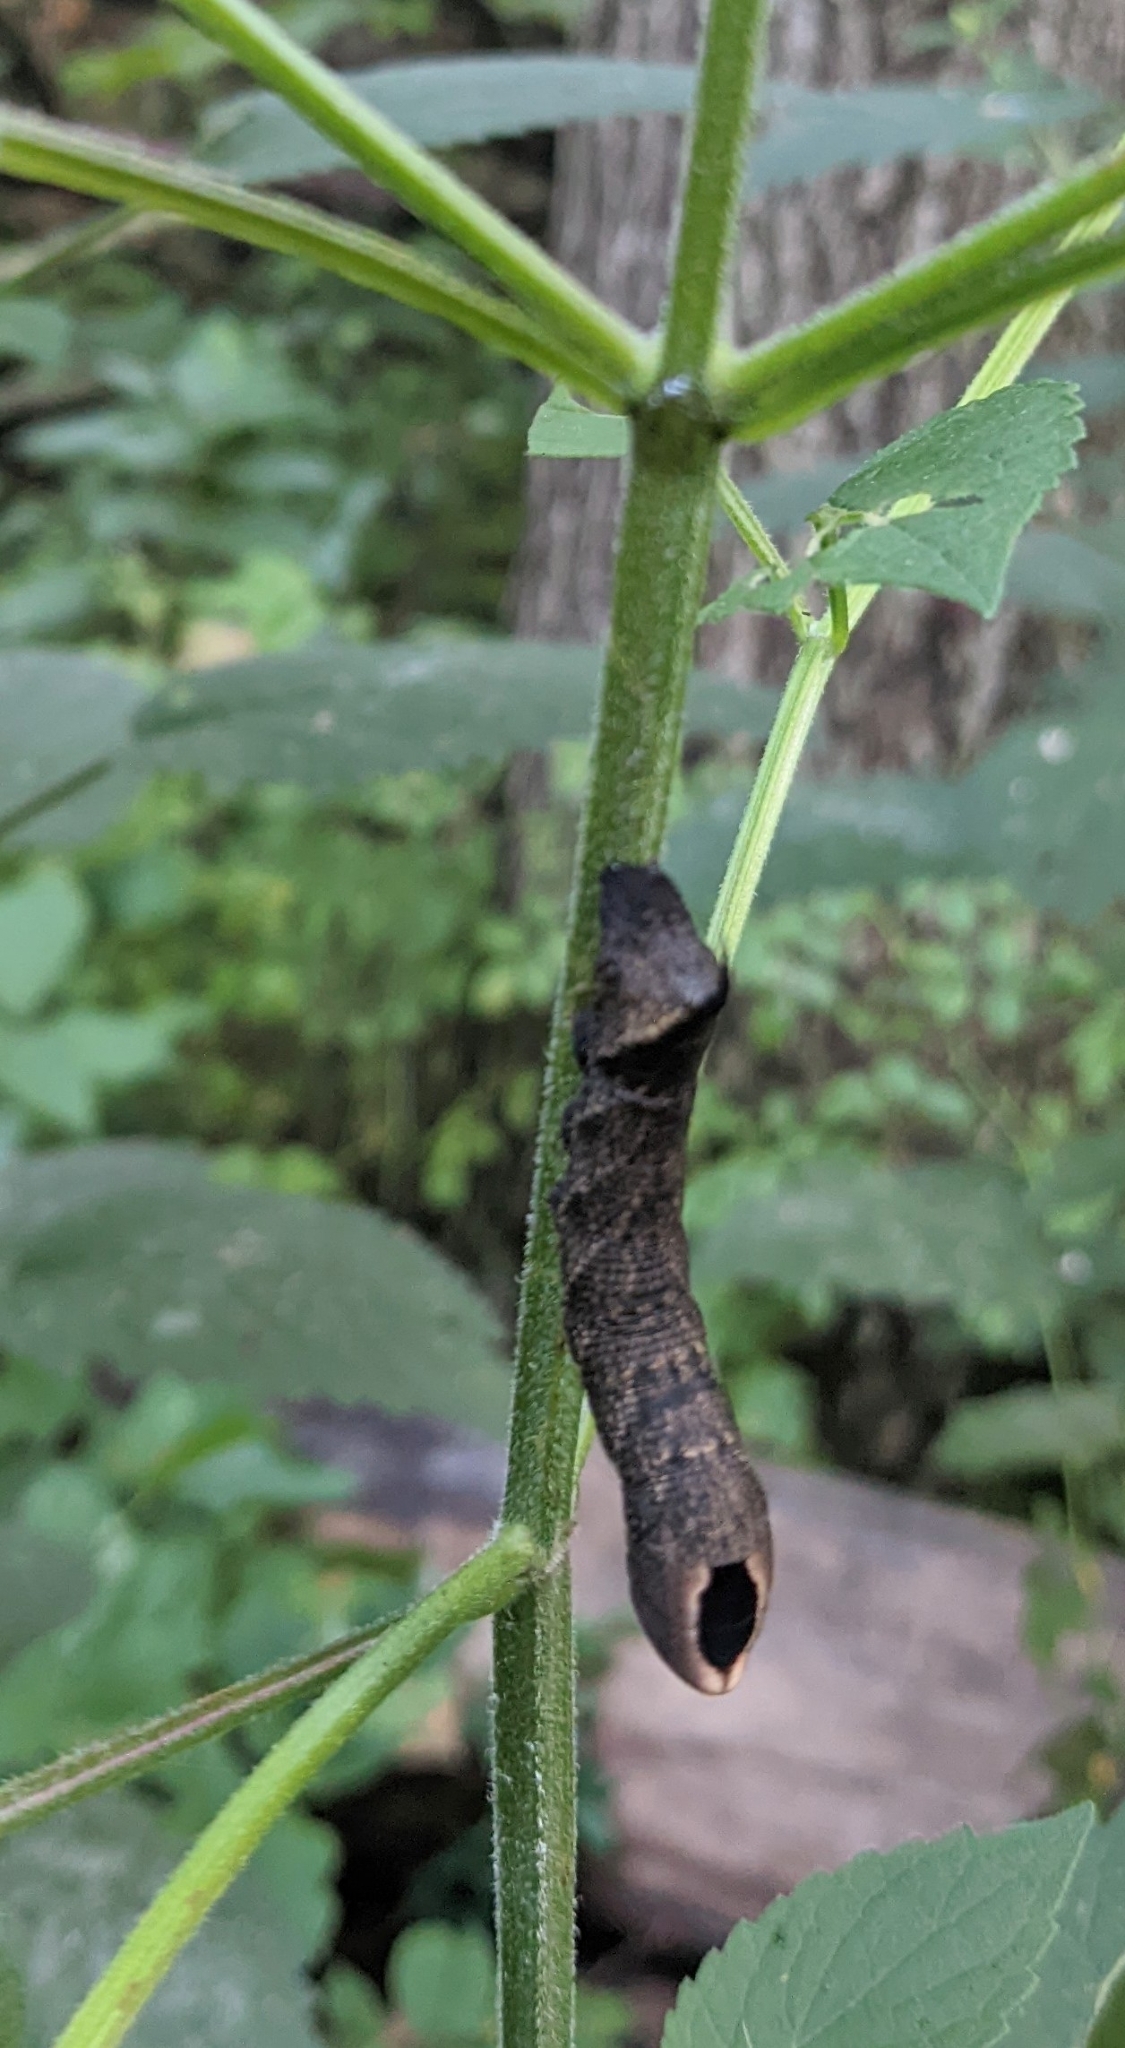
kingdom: Animalia
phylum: Arthropoda
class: Insecta
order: Lepidoptera
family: Sphingidae
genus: Lintneria
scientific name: Lintneria eremitus
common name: Hermit sphinx
